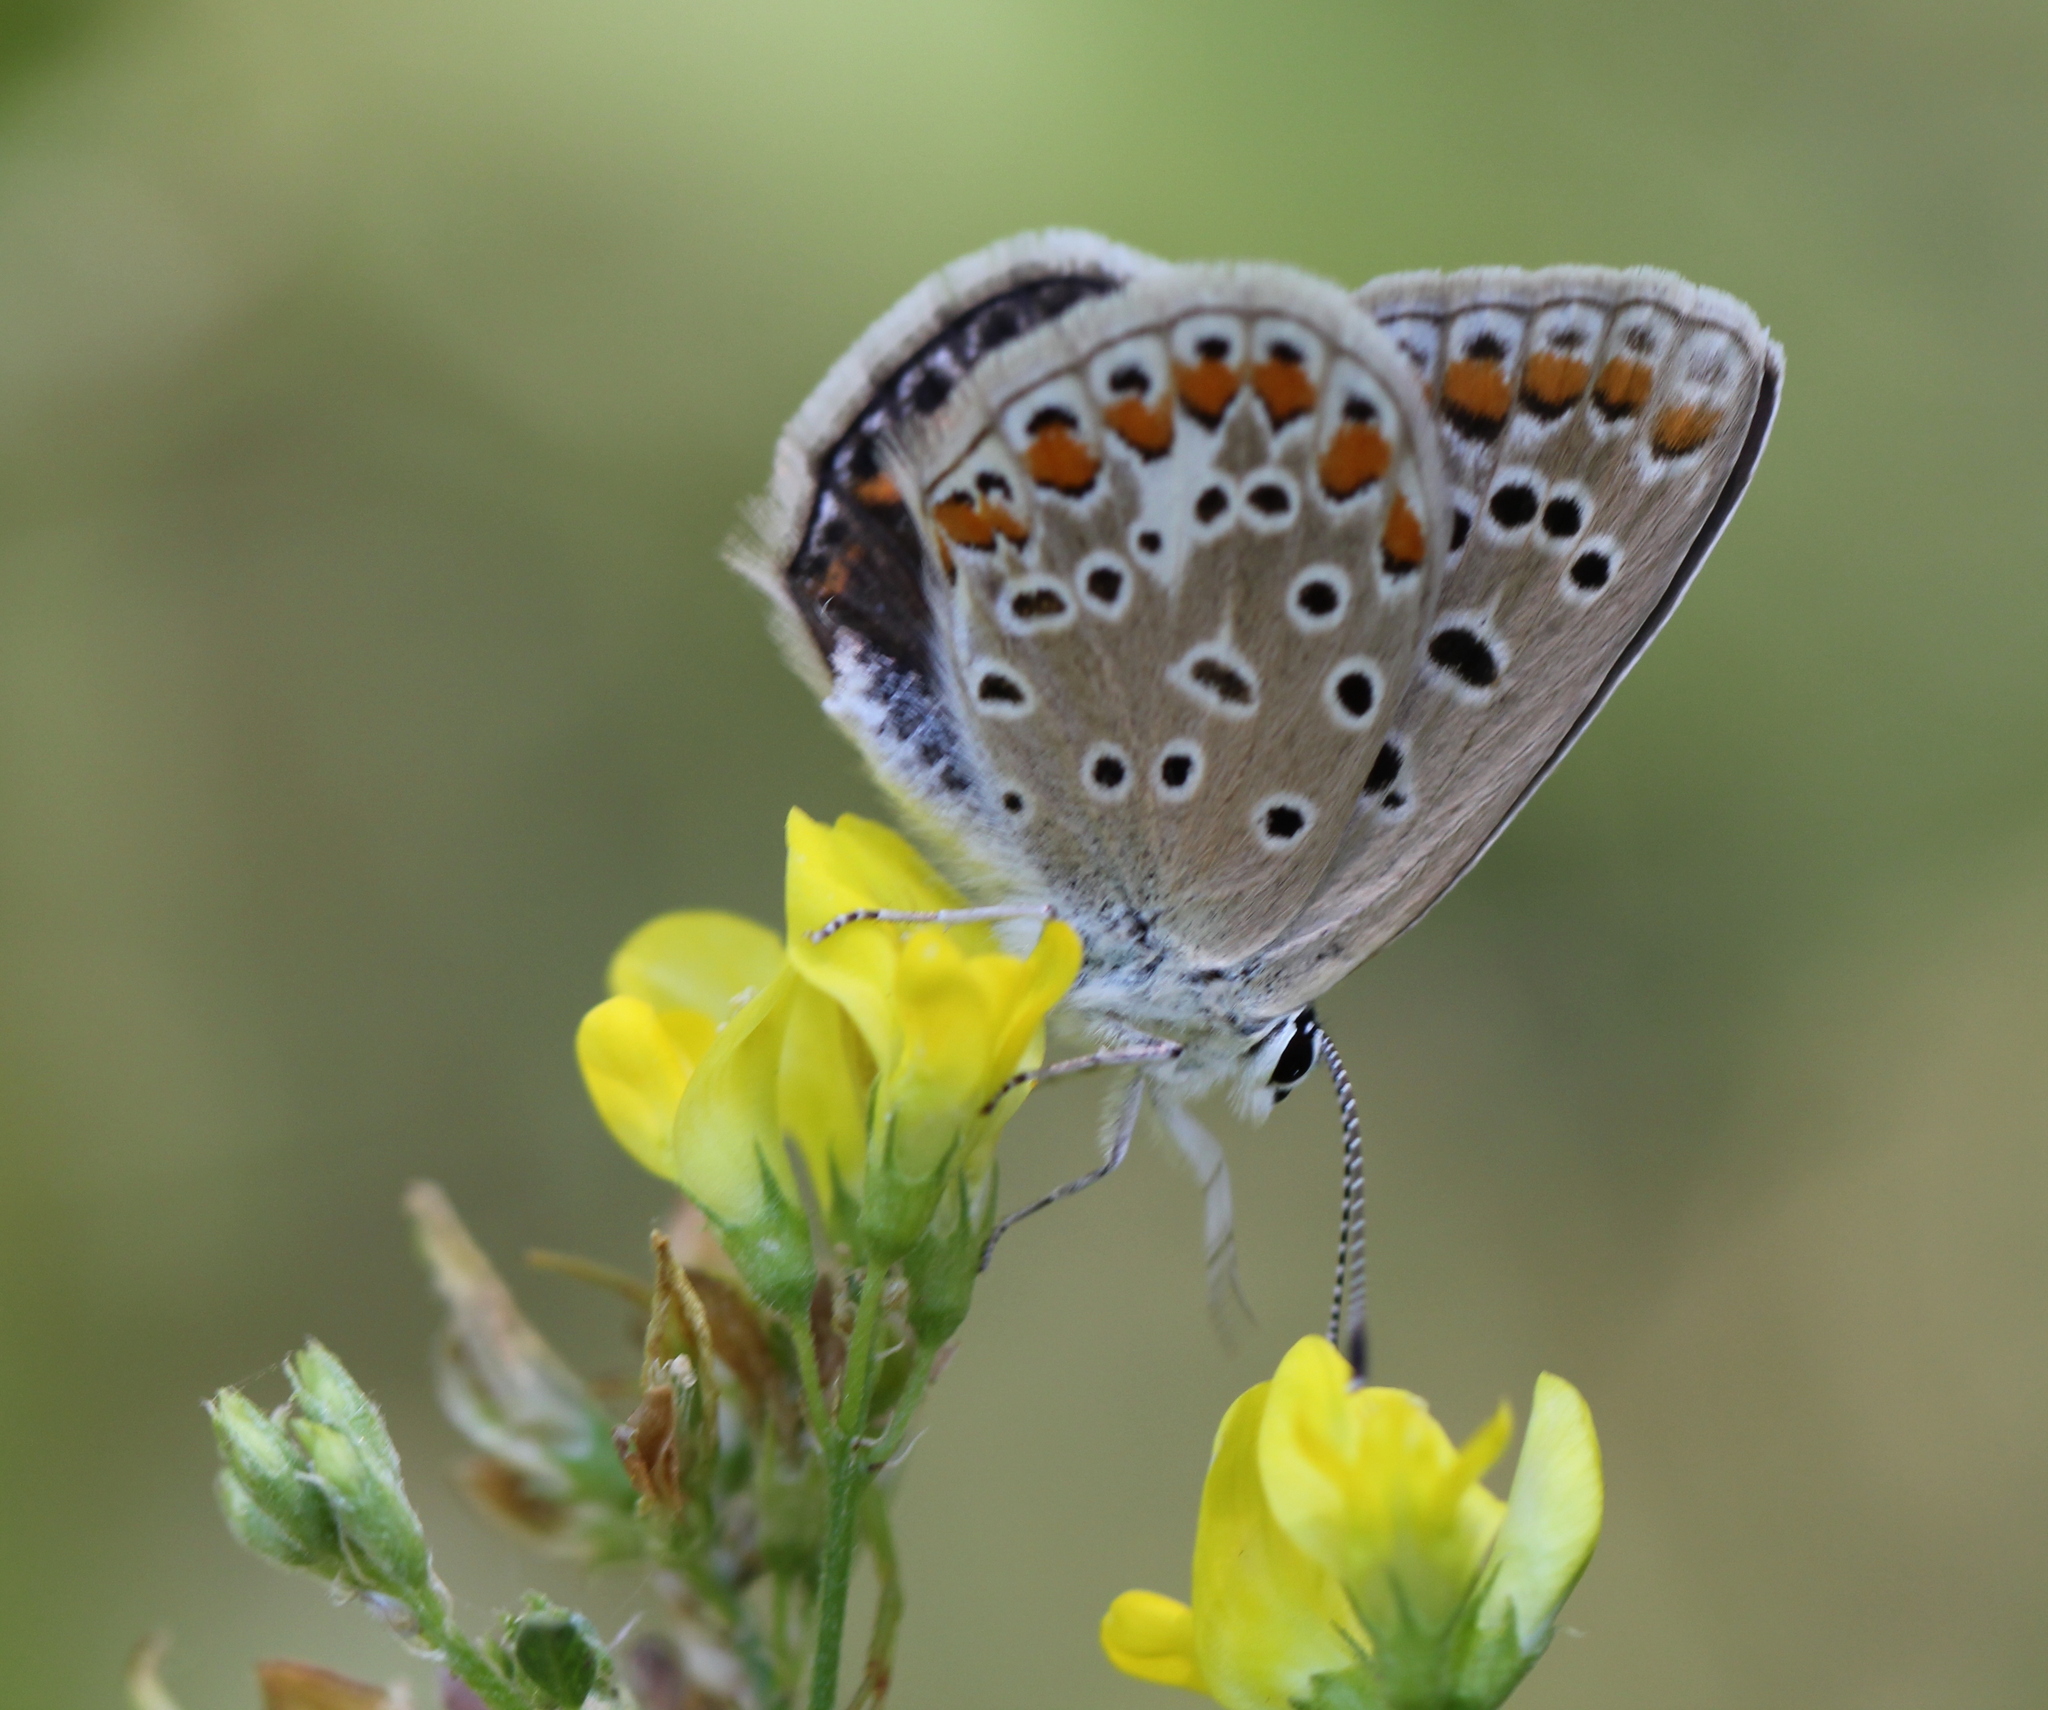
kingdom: Animalia
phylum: Arthropoda
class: Insecta
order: Lepidoptera
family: Lycaenidae
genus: Polyommatus
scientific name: Polyommatus icarus
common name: Common blue
